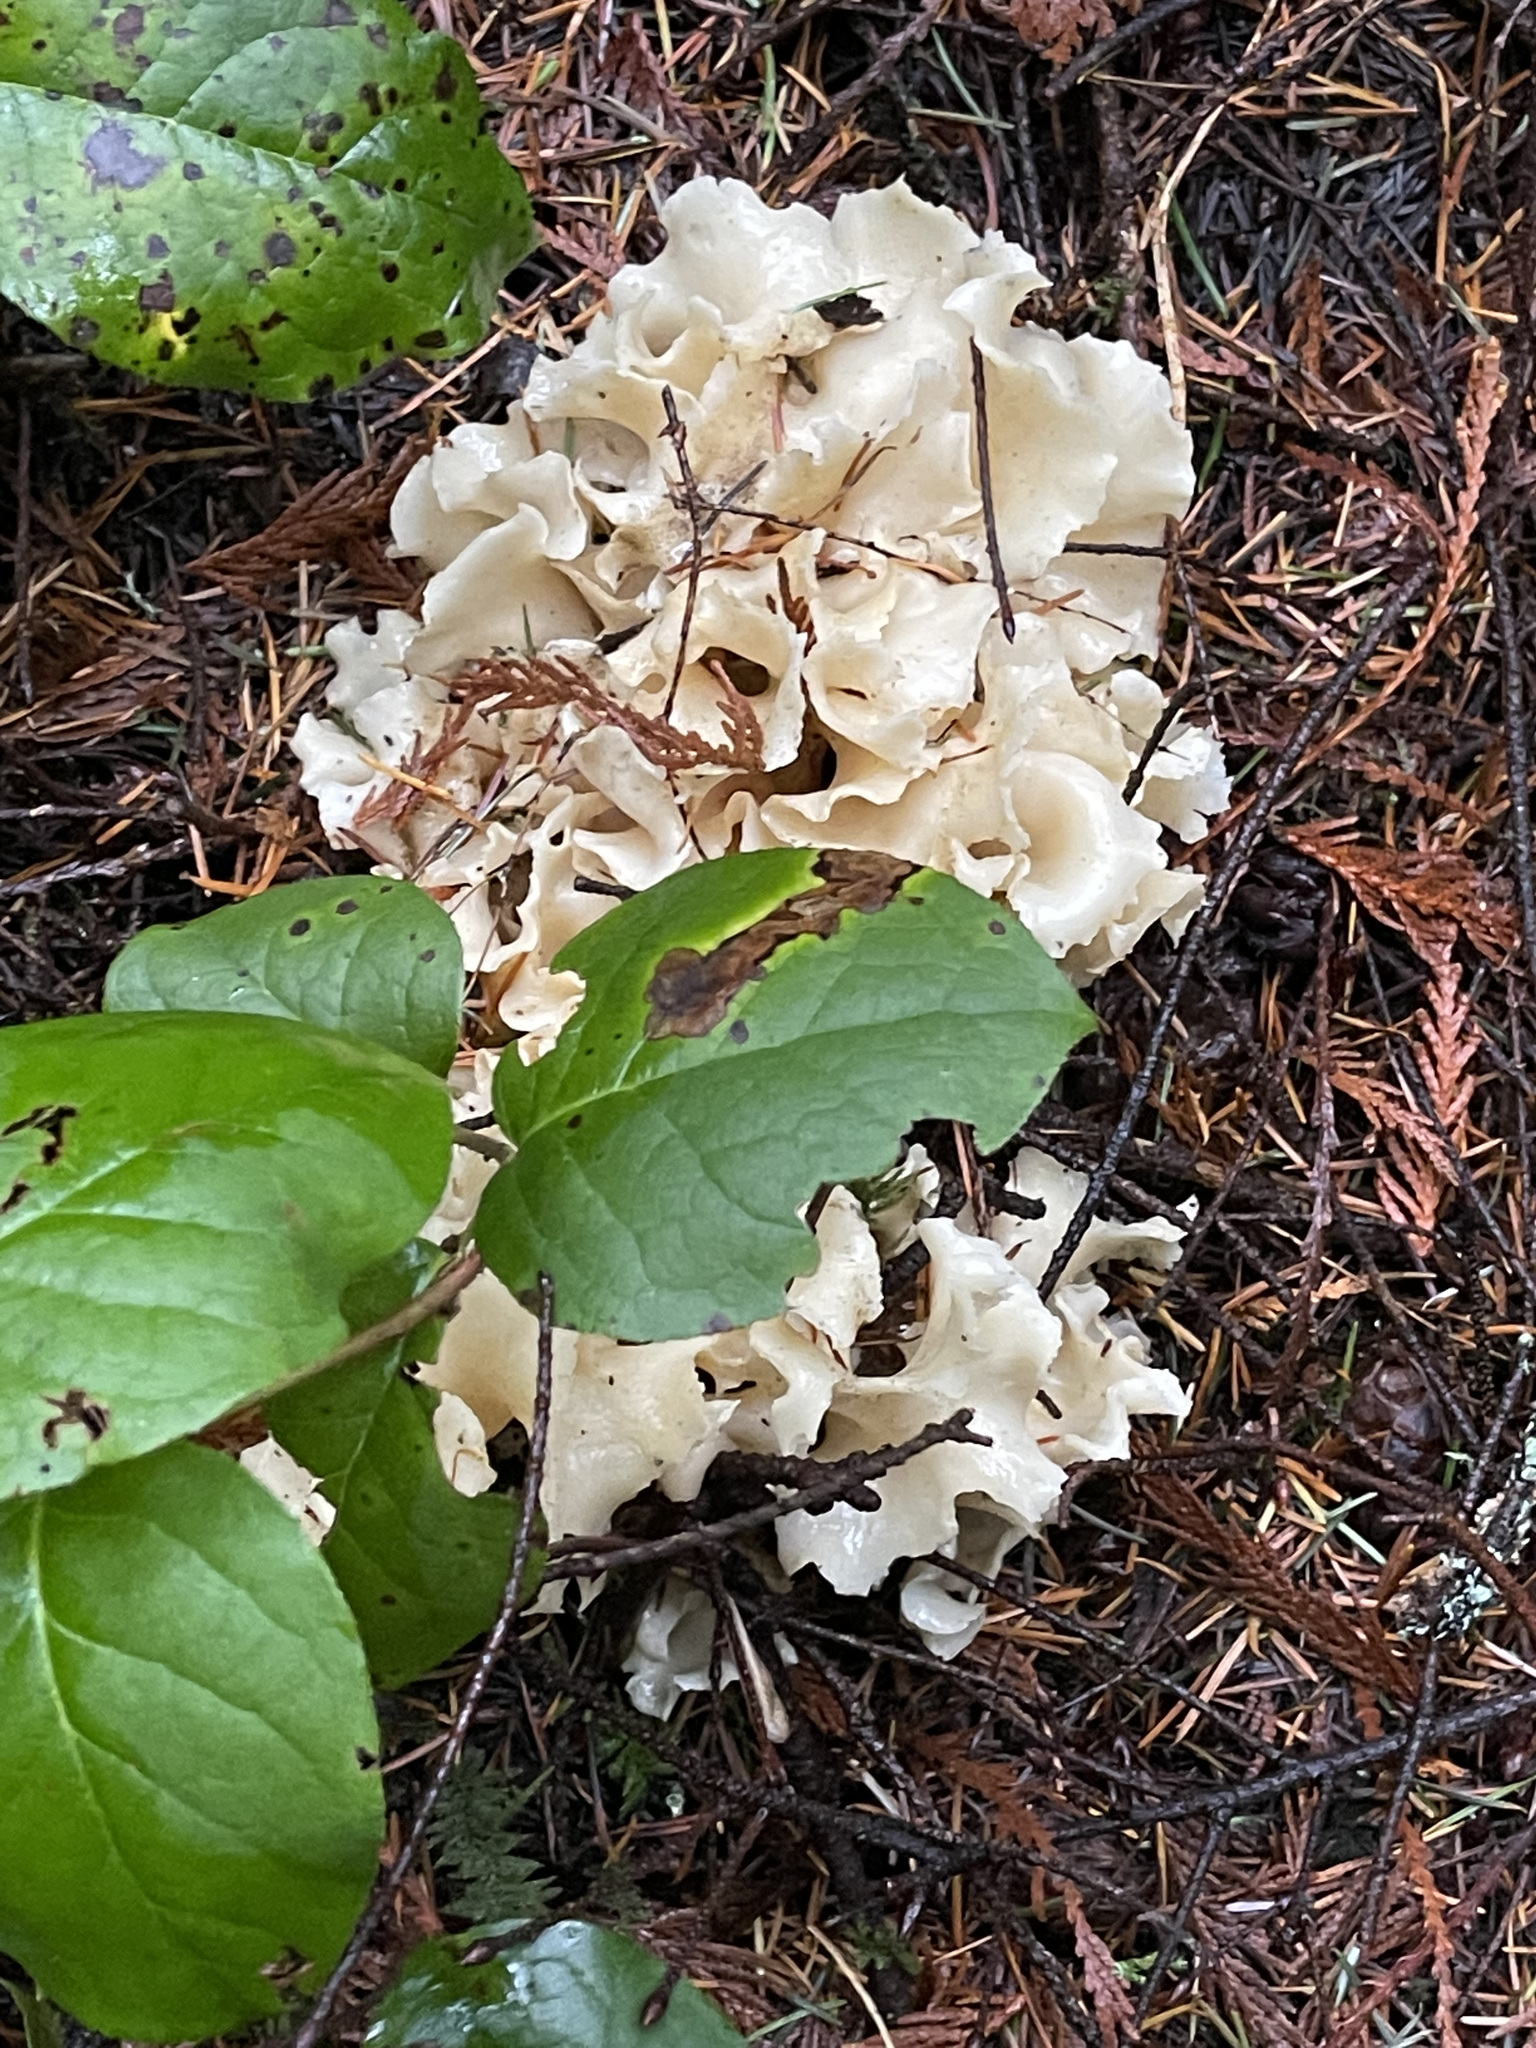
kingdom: Fungi
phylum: Basidiomycota
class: Agaricomycetes
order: Polyporales
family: Sparassidaceae
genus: Sparassis
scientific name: Sparassis radicata
